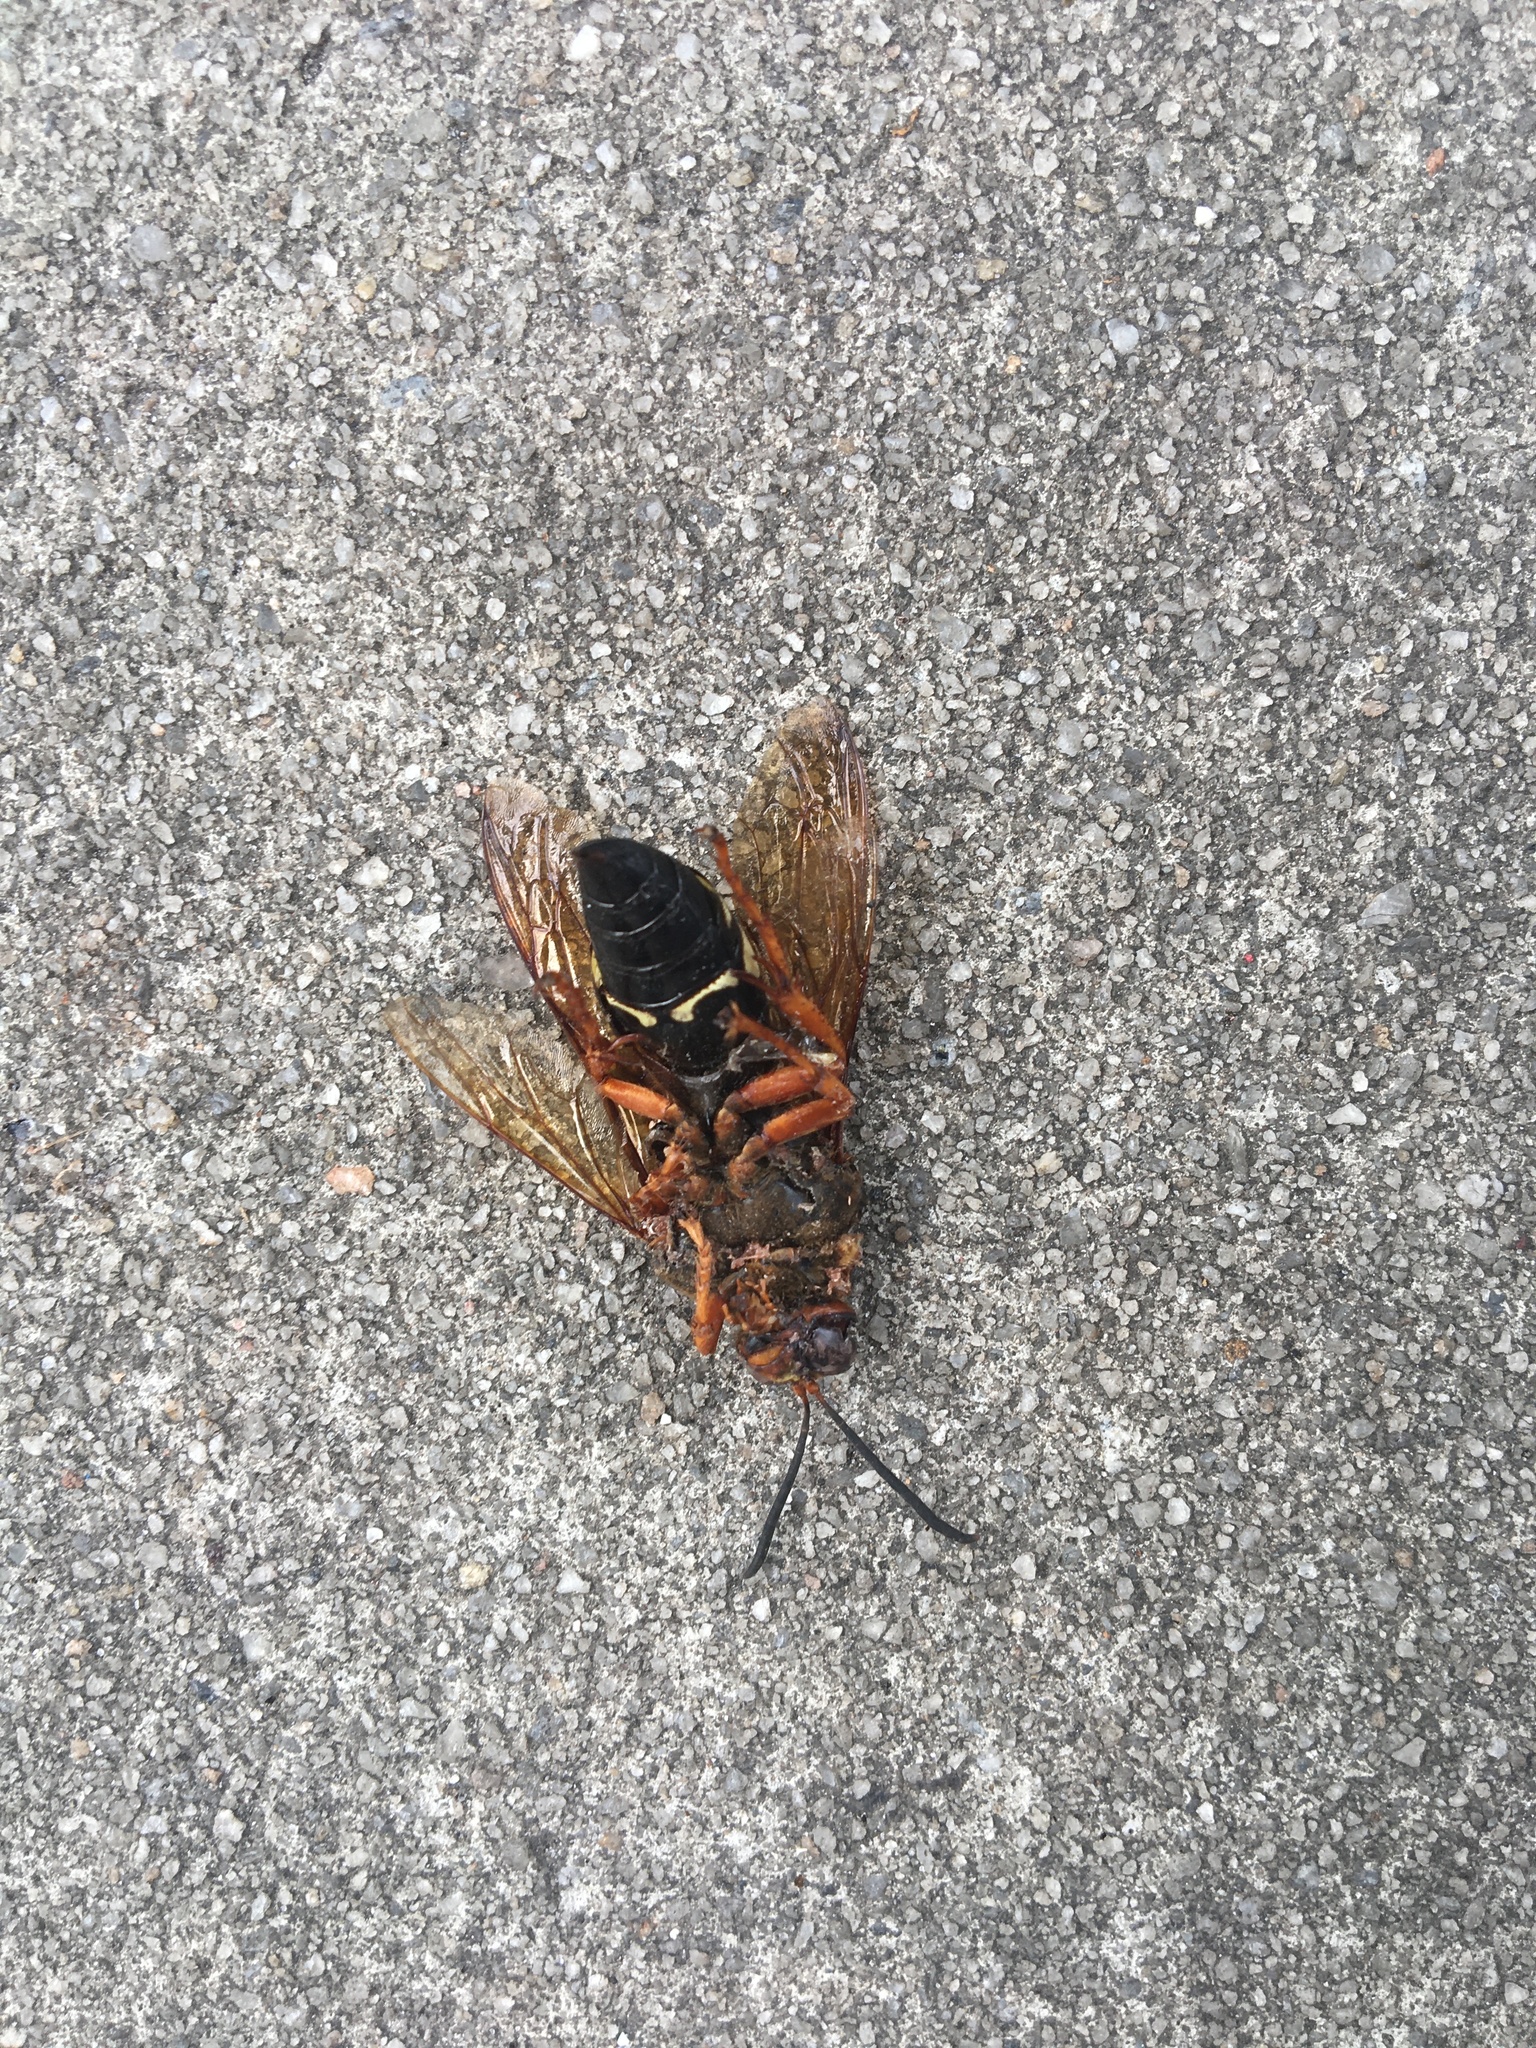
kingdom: Animalia
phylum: Arthropoda
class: Insecta
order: Hymenoptera
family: Crabronidae
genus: Sphecius
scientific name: Sphecius speciosus
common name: Cicada killer
